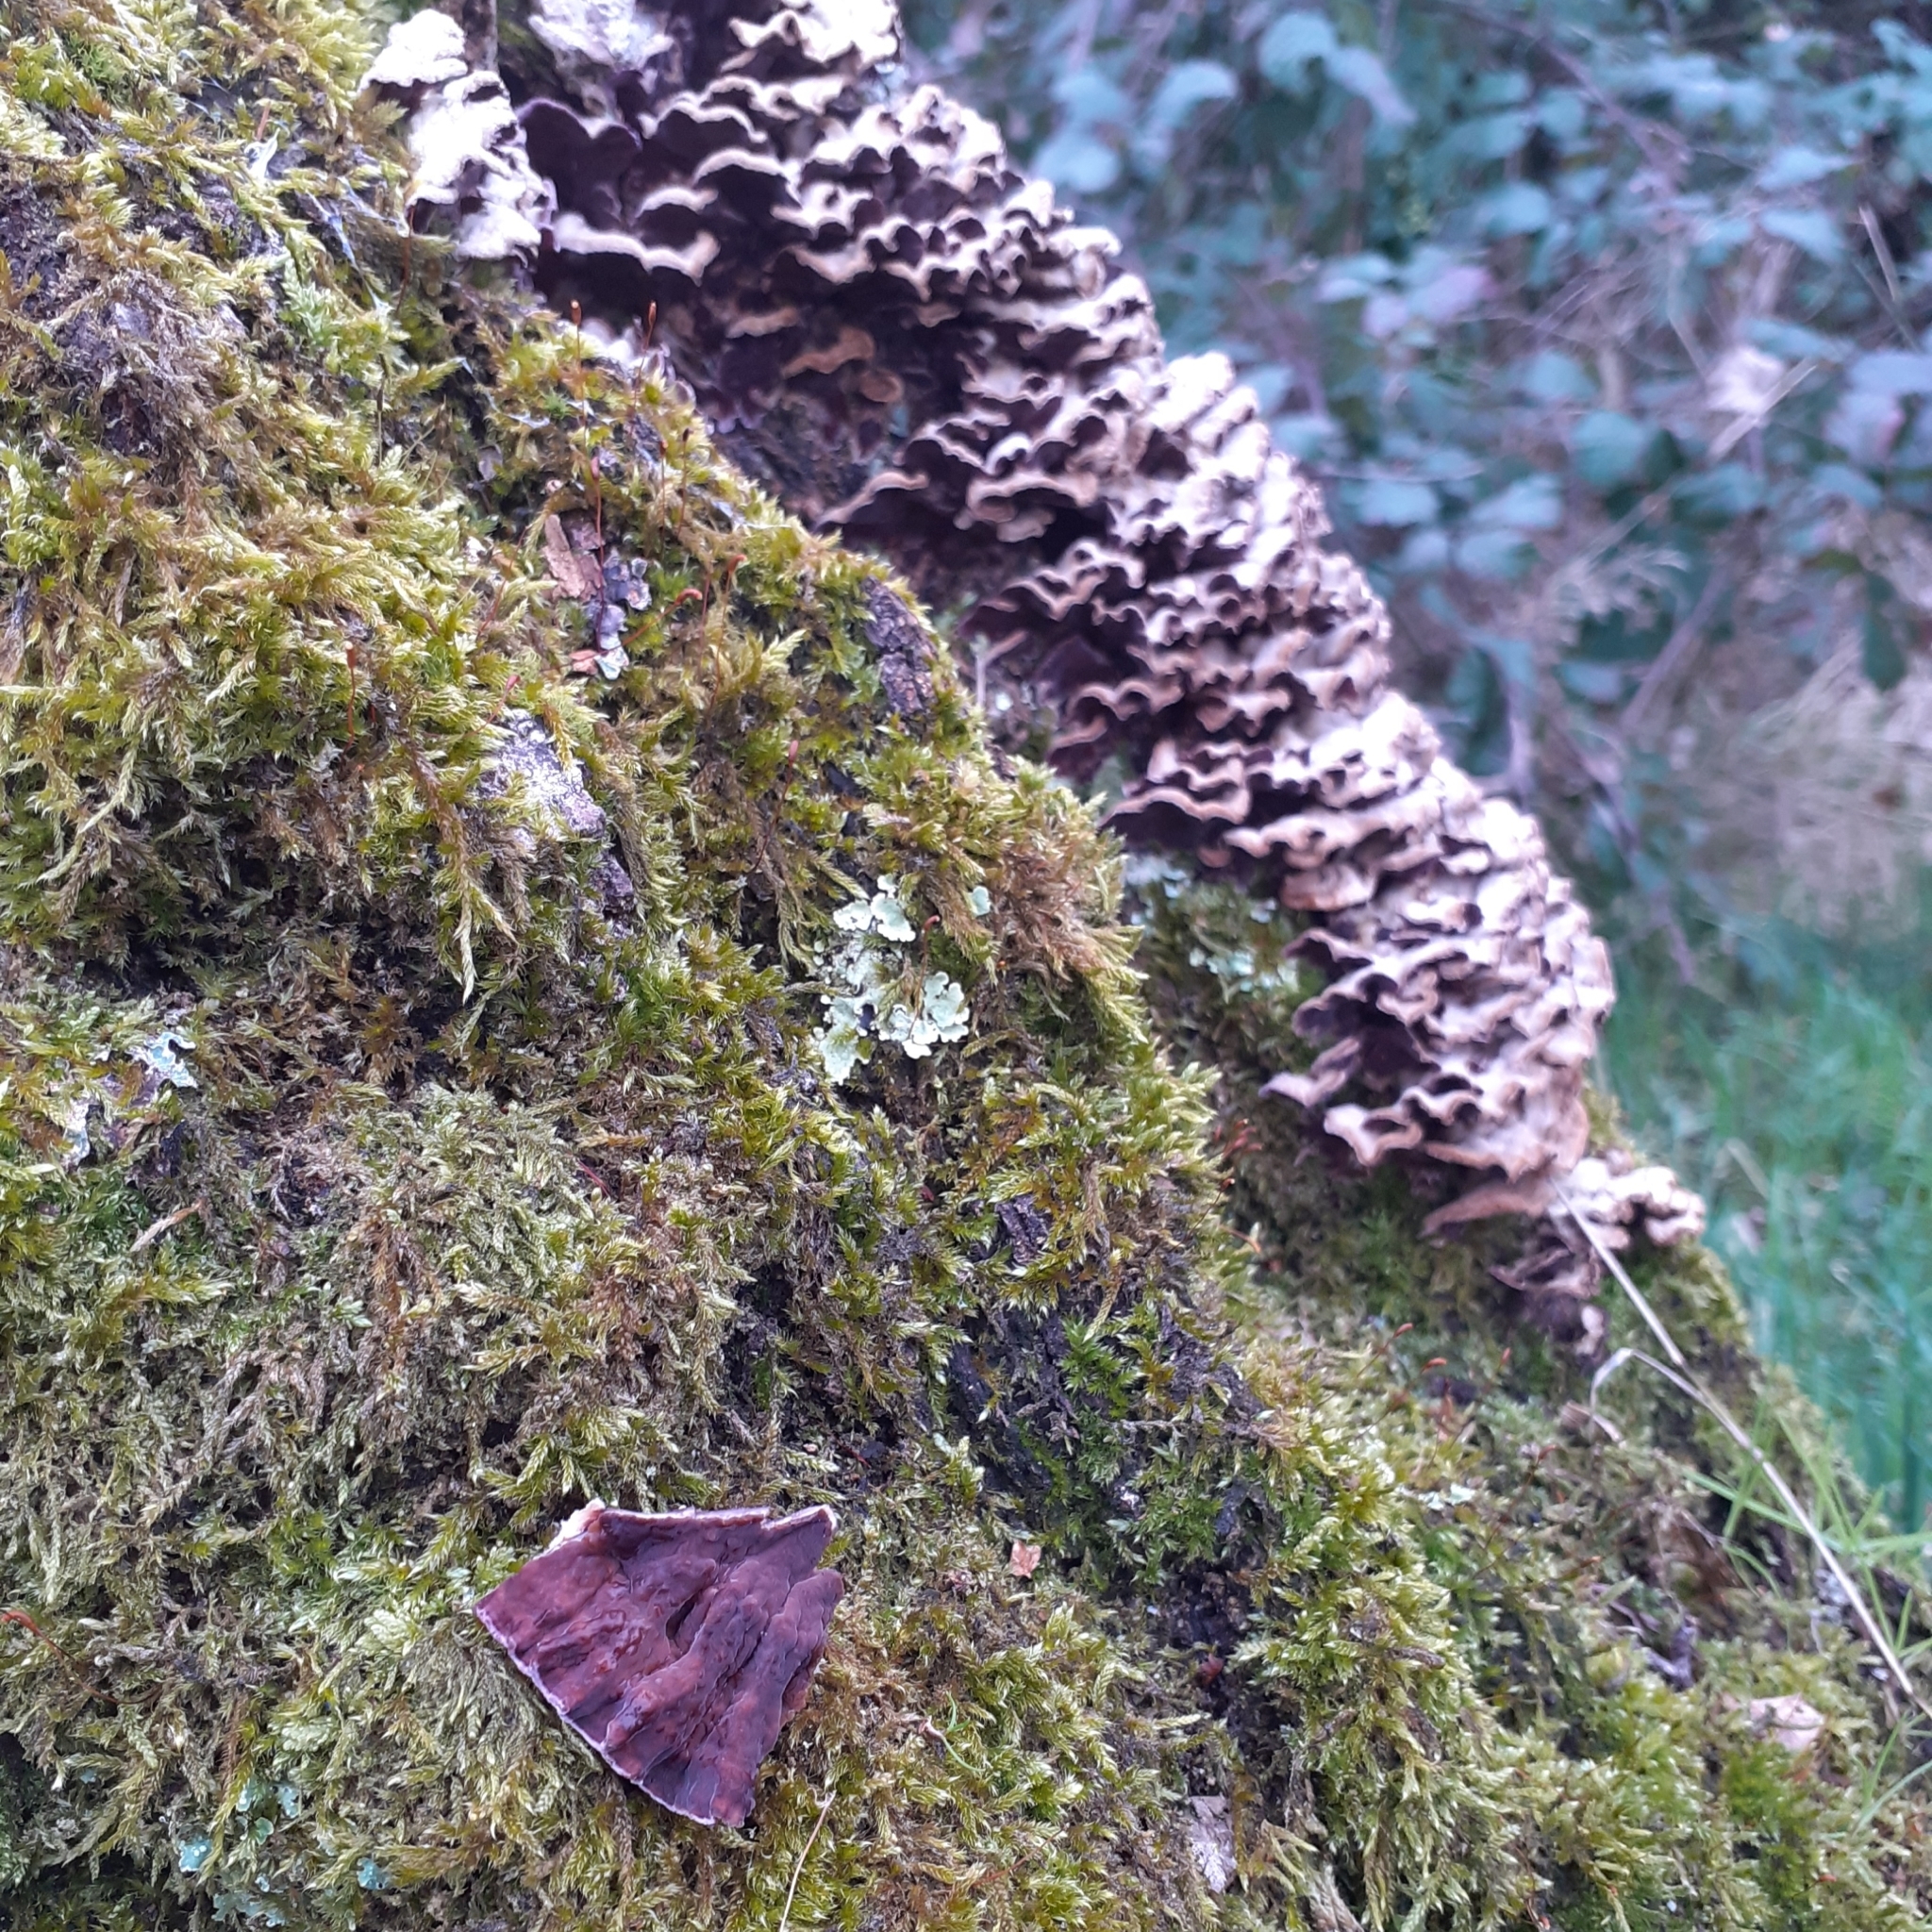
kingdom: Fungi
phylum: Basidiomycota
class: Agaricomycetes
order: Agaricales
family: Cyphellaceae
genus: Chondrostereum
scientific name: Chondrostereum purpureum
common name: Silver leaf disease
